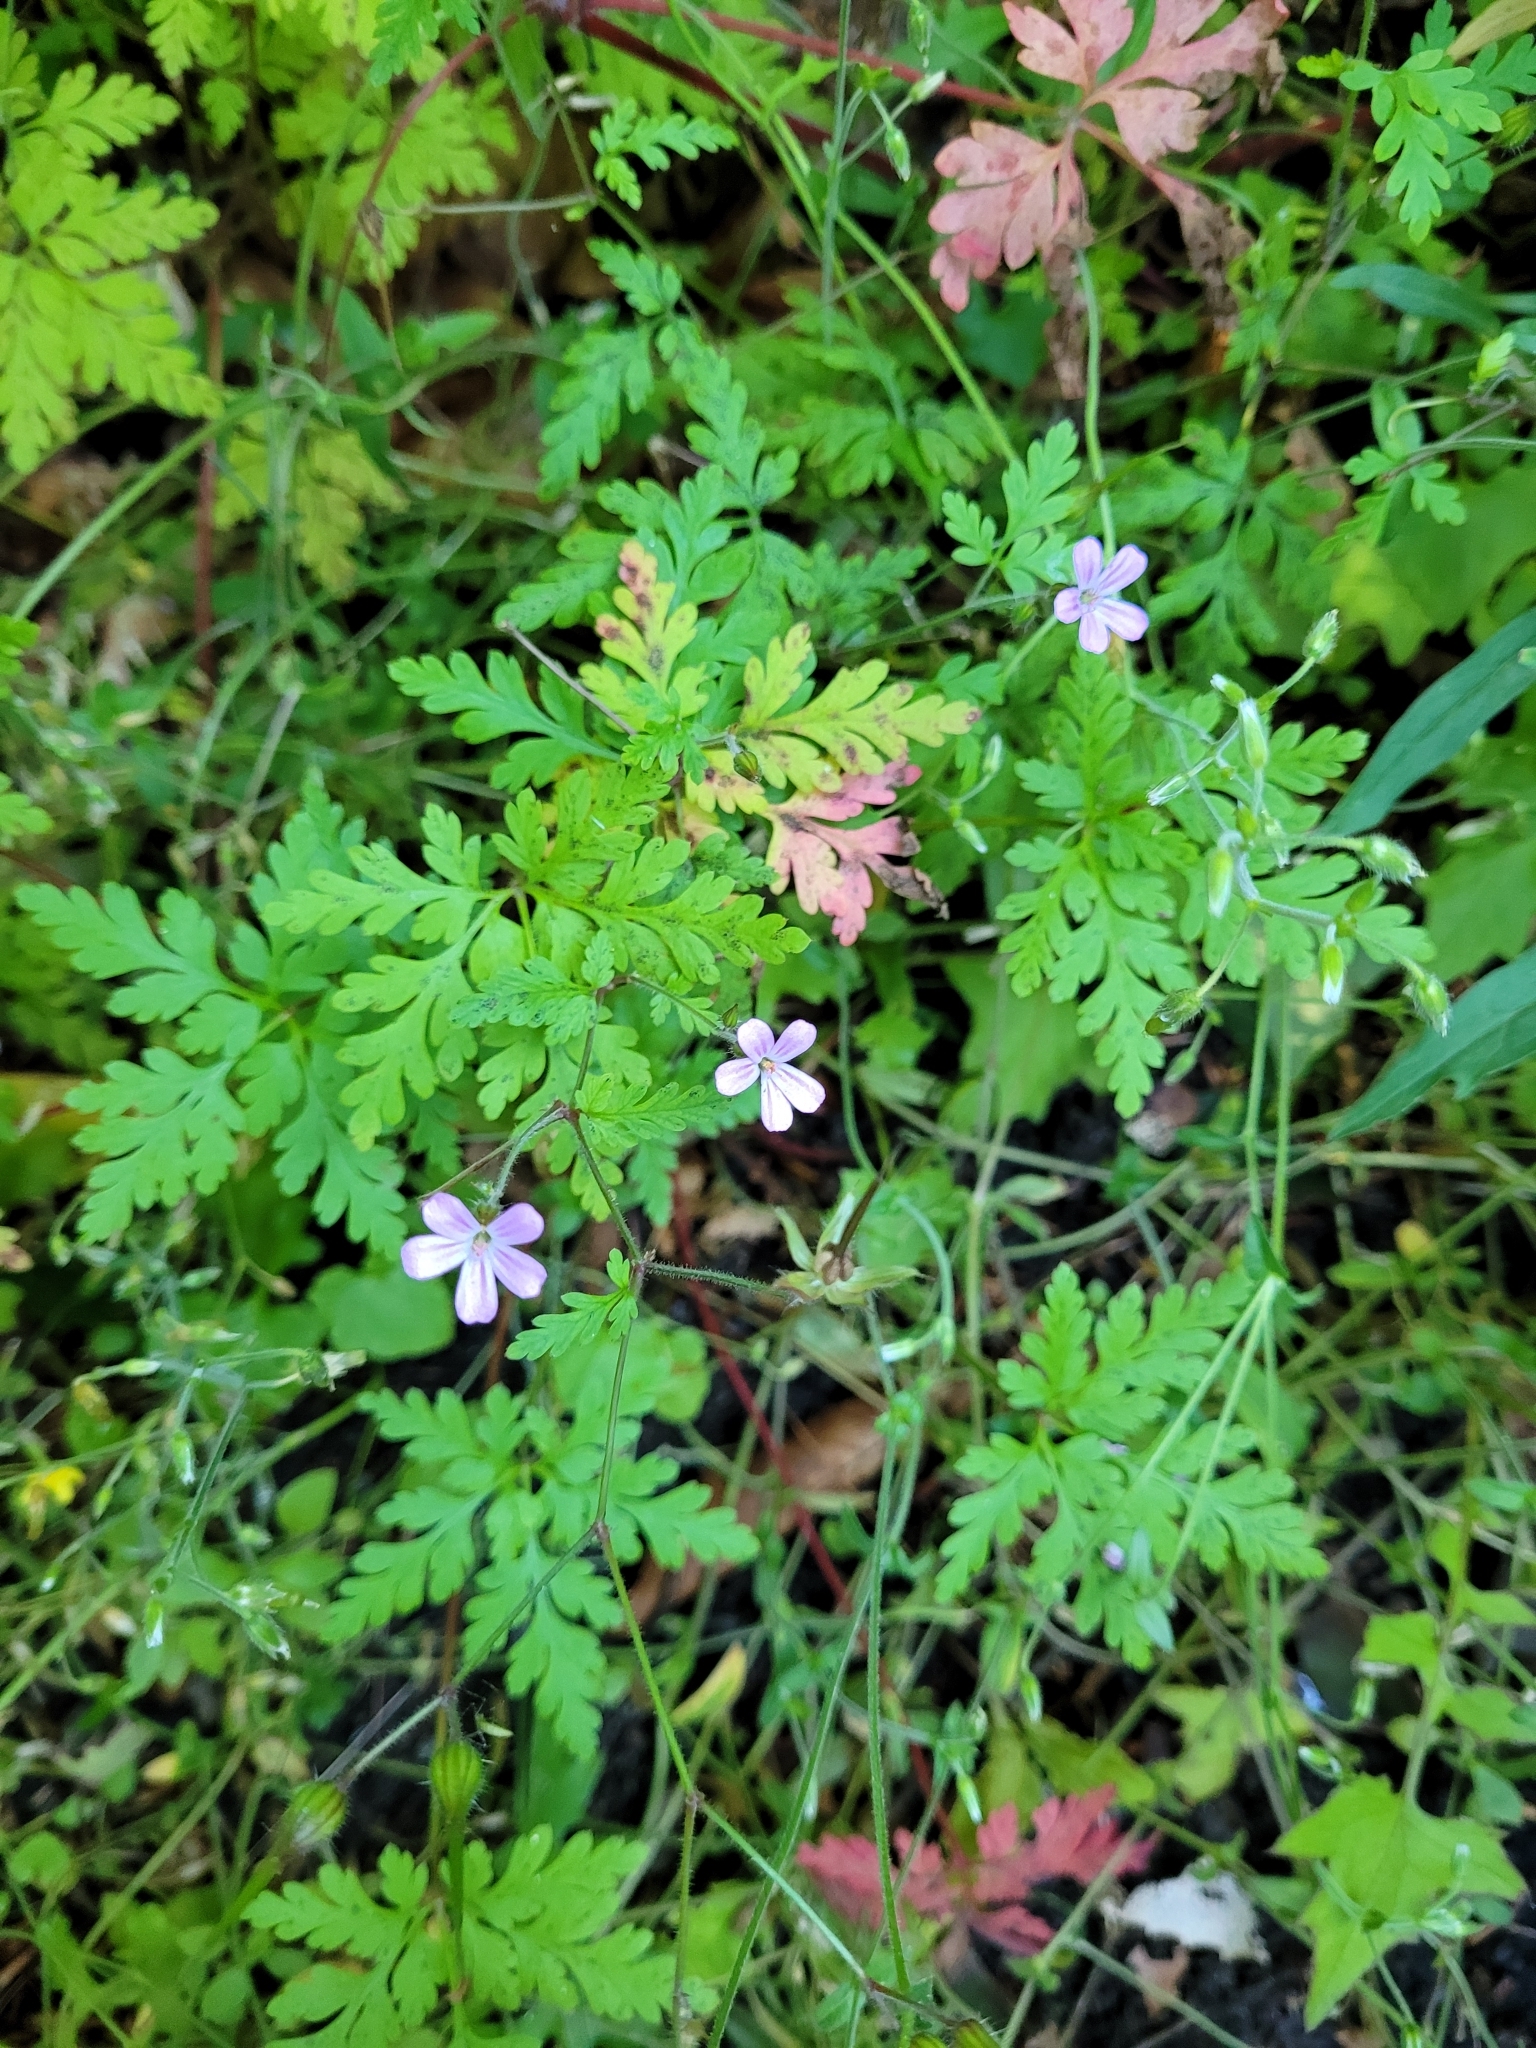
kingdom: Plantae
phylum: Tracheophyta
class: Magnoliopsida
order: Geraniales
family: Geraniaceae
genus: Geranium
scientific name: Geranium robertianum
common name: Herb-robert
